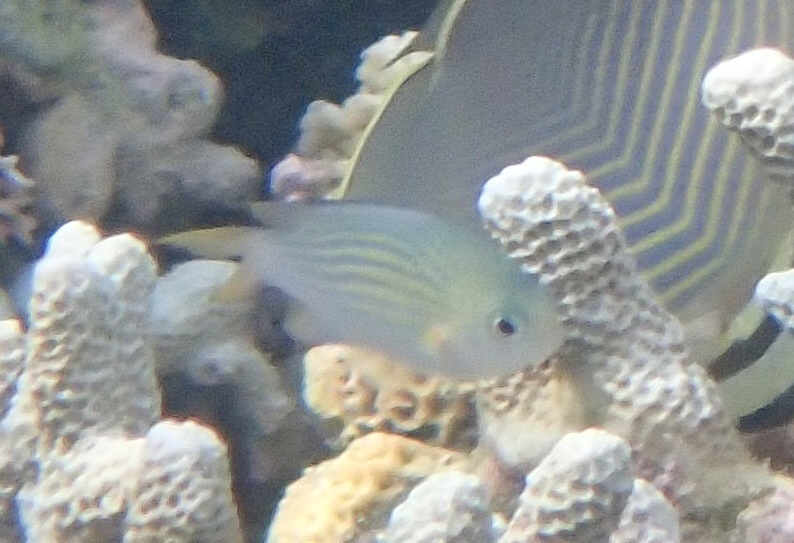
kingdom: Animalia
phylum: Chordata
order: Perciformes
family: Pomacentridae
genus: Chromis
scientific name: Chromis lineata
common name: Lined chromis
